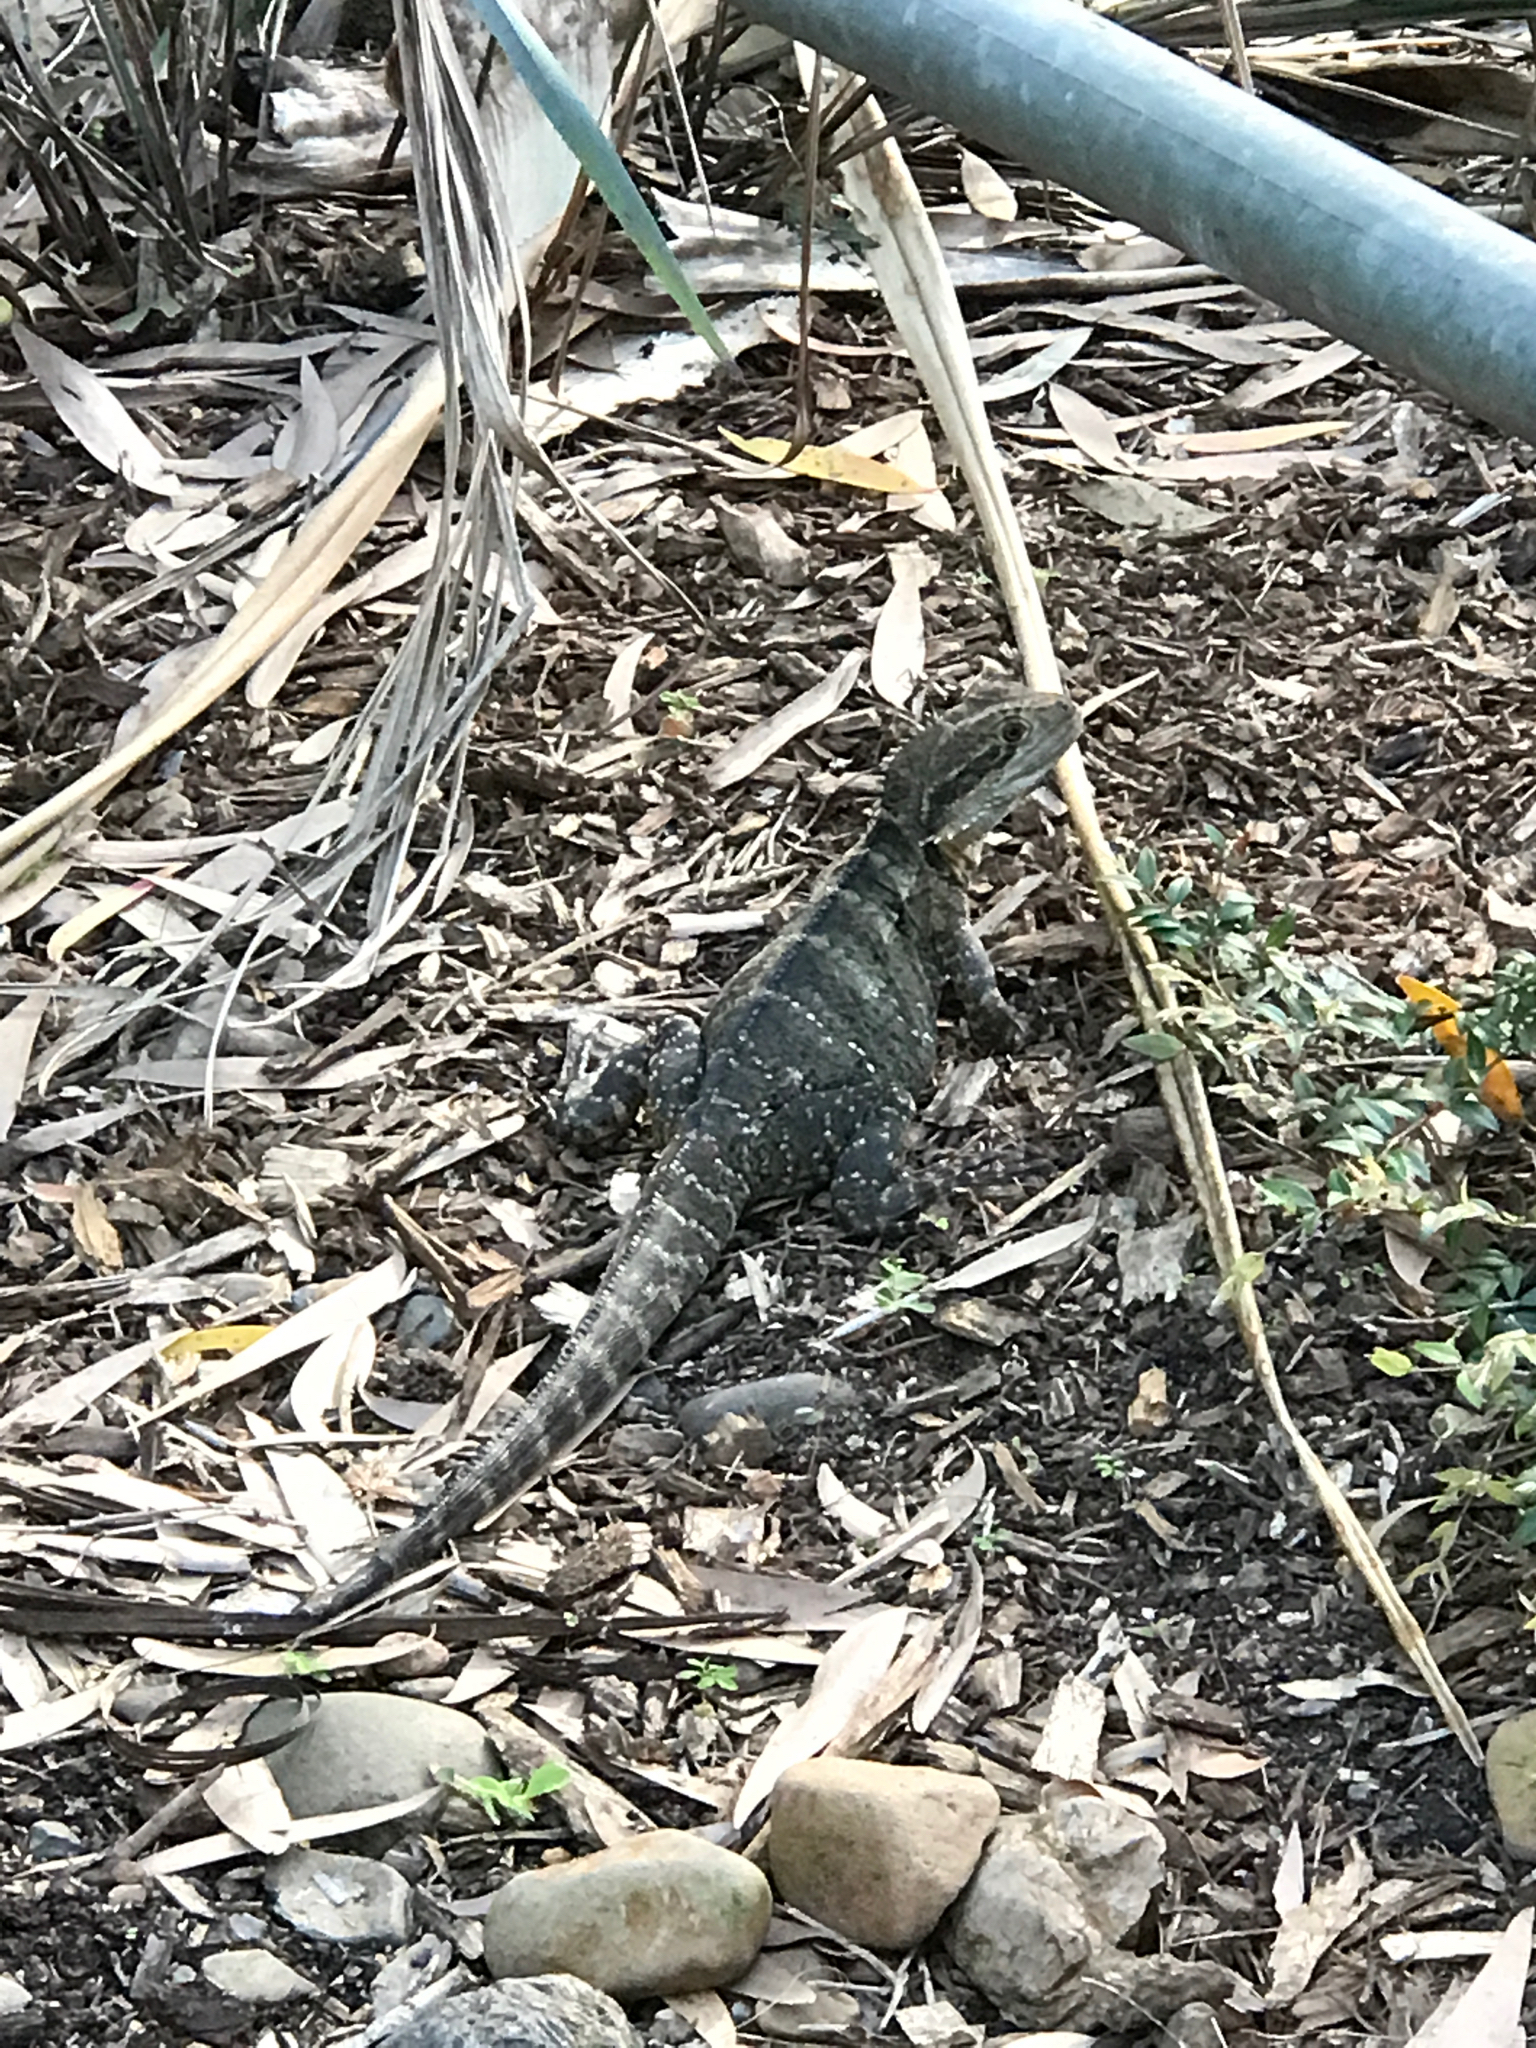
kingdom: Animalia
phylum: Chordata
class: Squamata
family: Agamidae
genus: Intellagama
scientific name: Intellagama lesueurii
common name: Eastern water dragon
